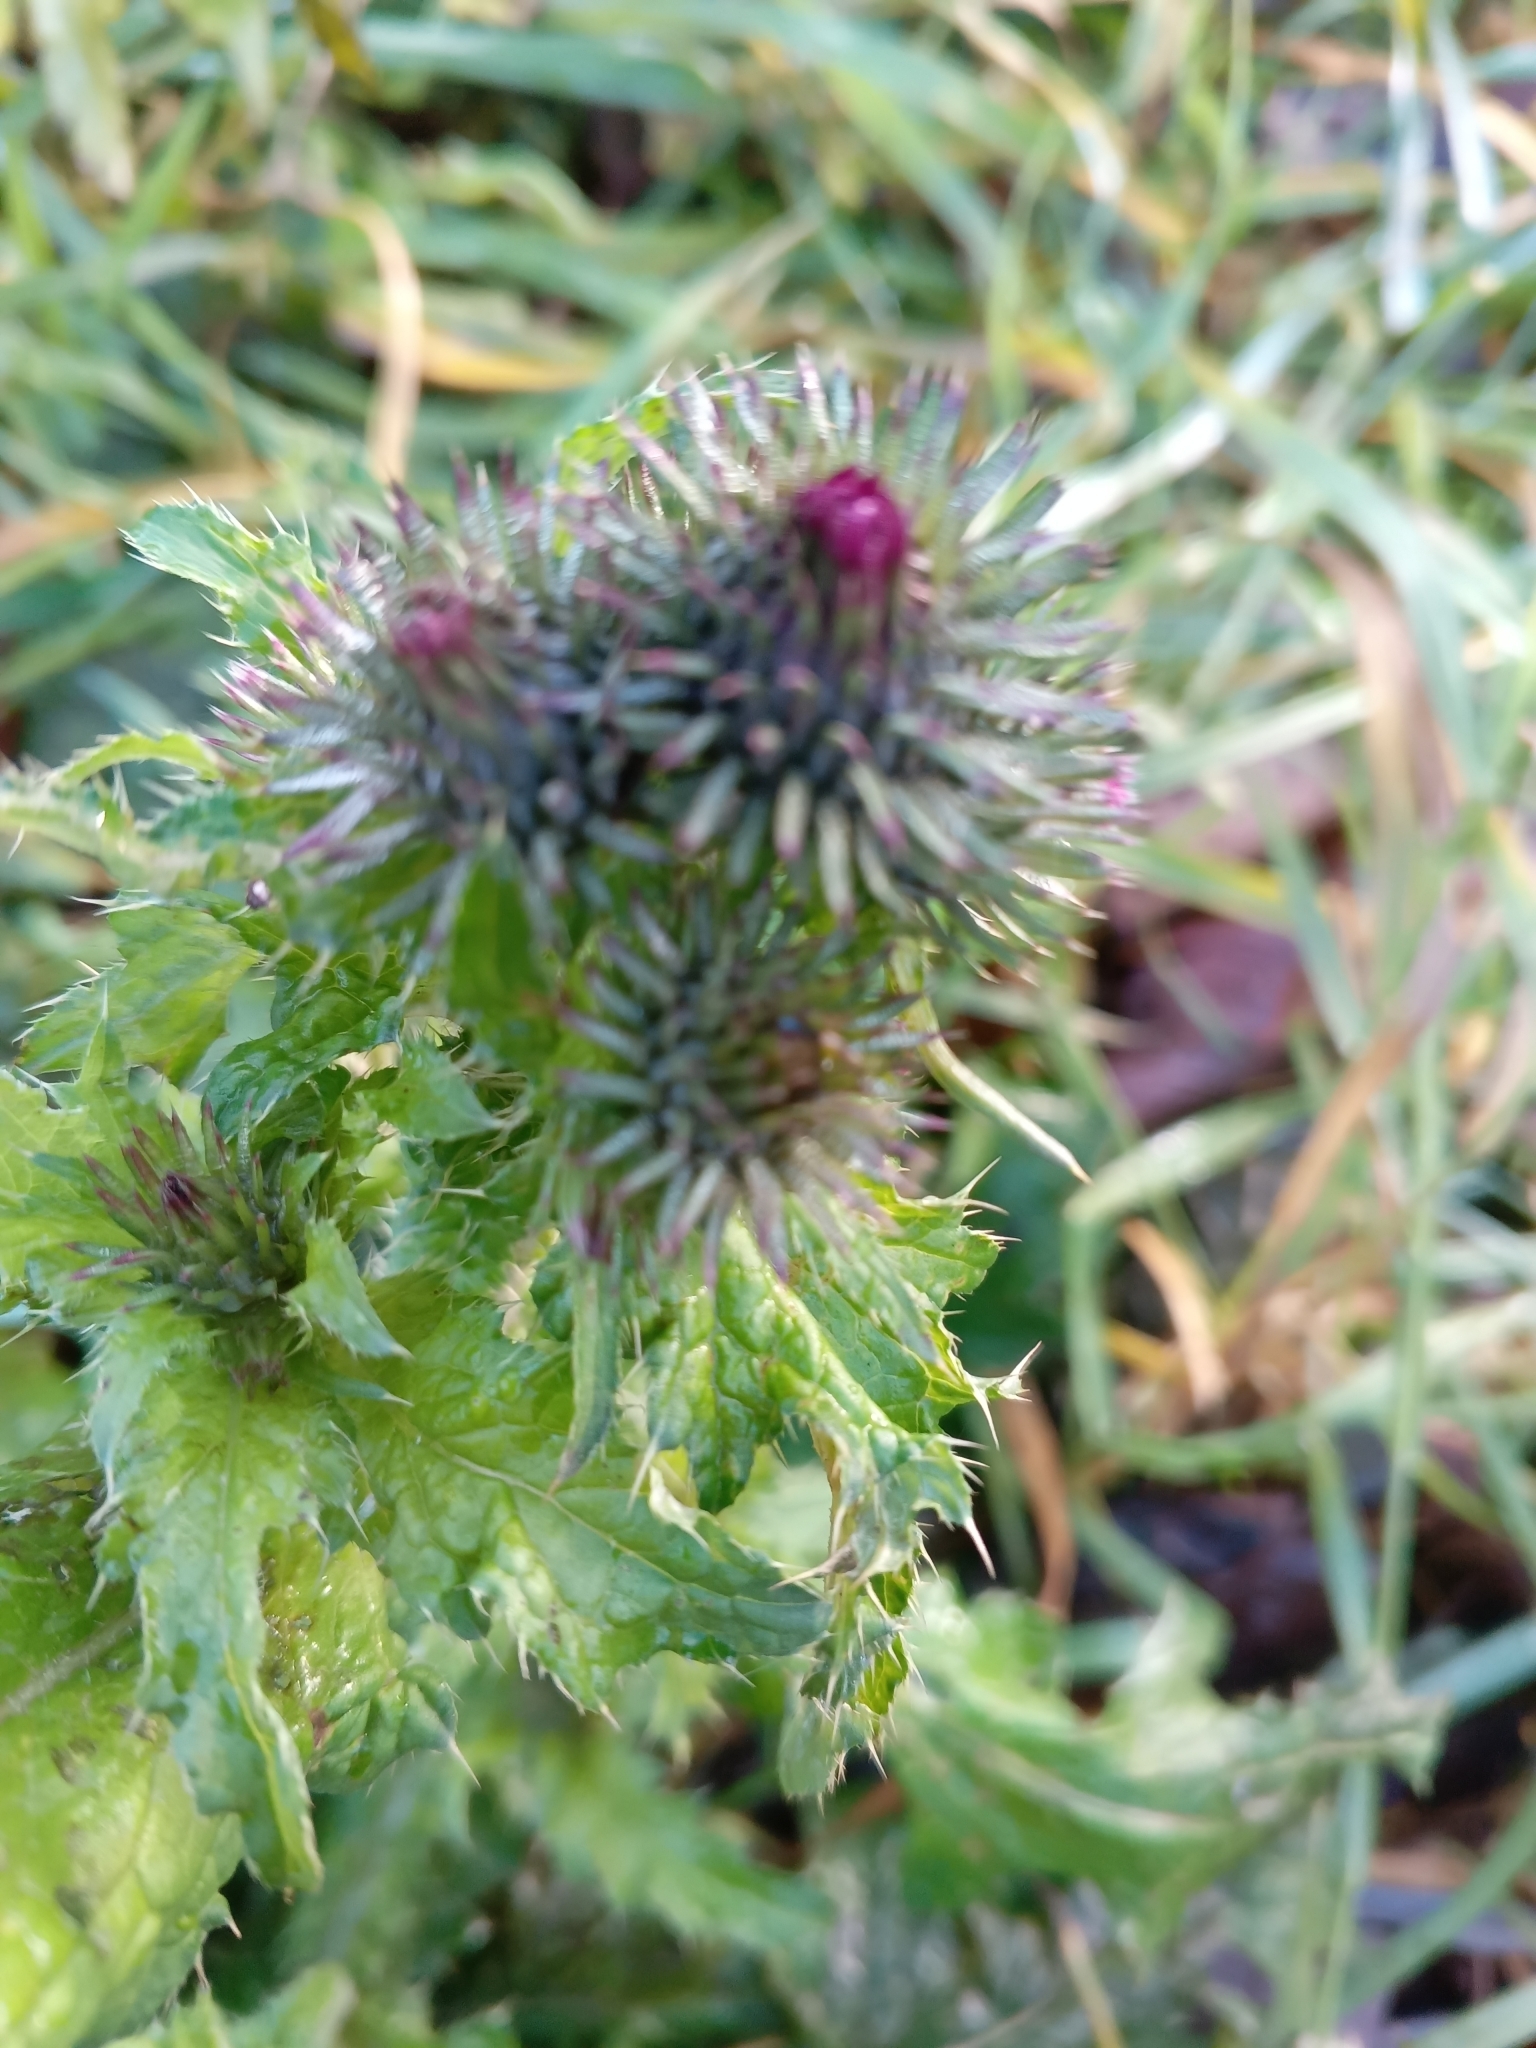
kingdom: Plantae
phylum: Tracheophyta
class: Magnoliopsida
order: Asterales
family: Asteraceae
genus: Carduus
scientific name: Carduus crispus
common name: Welted thistle
